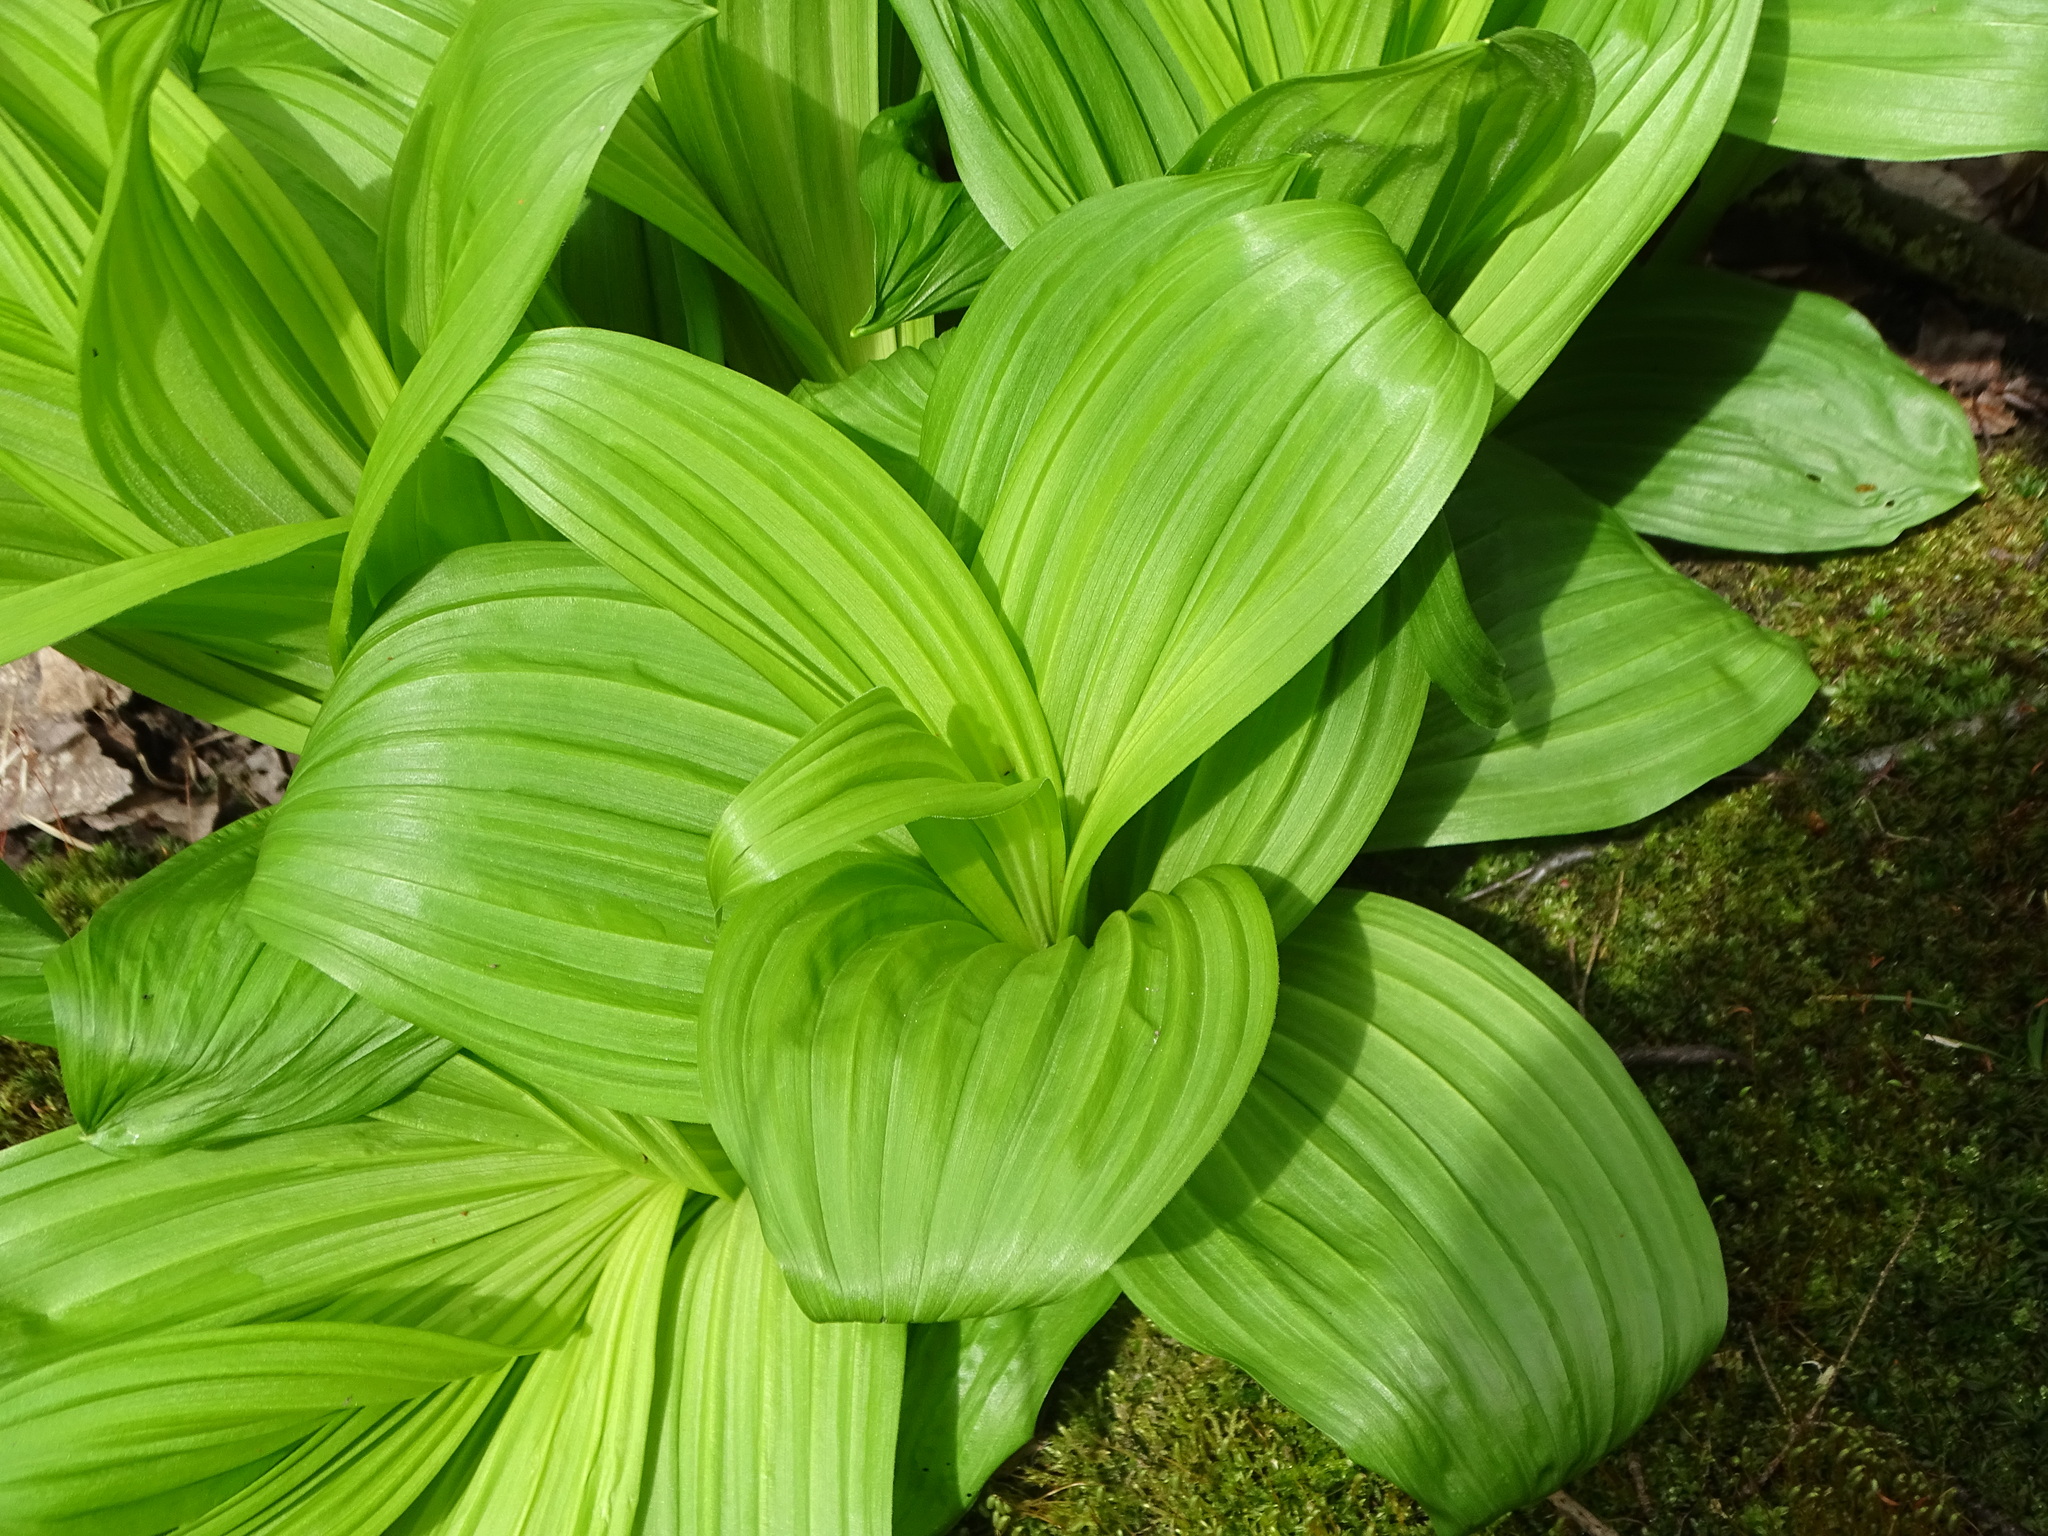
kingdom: Plantae
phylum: Tracheophyta
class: Liliopsida
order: Liliales
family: Melanthiaceae
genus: Veratrum
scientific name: Veratrum viride
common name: American false hellebore
